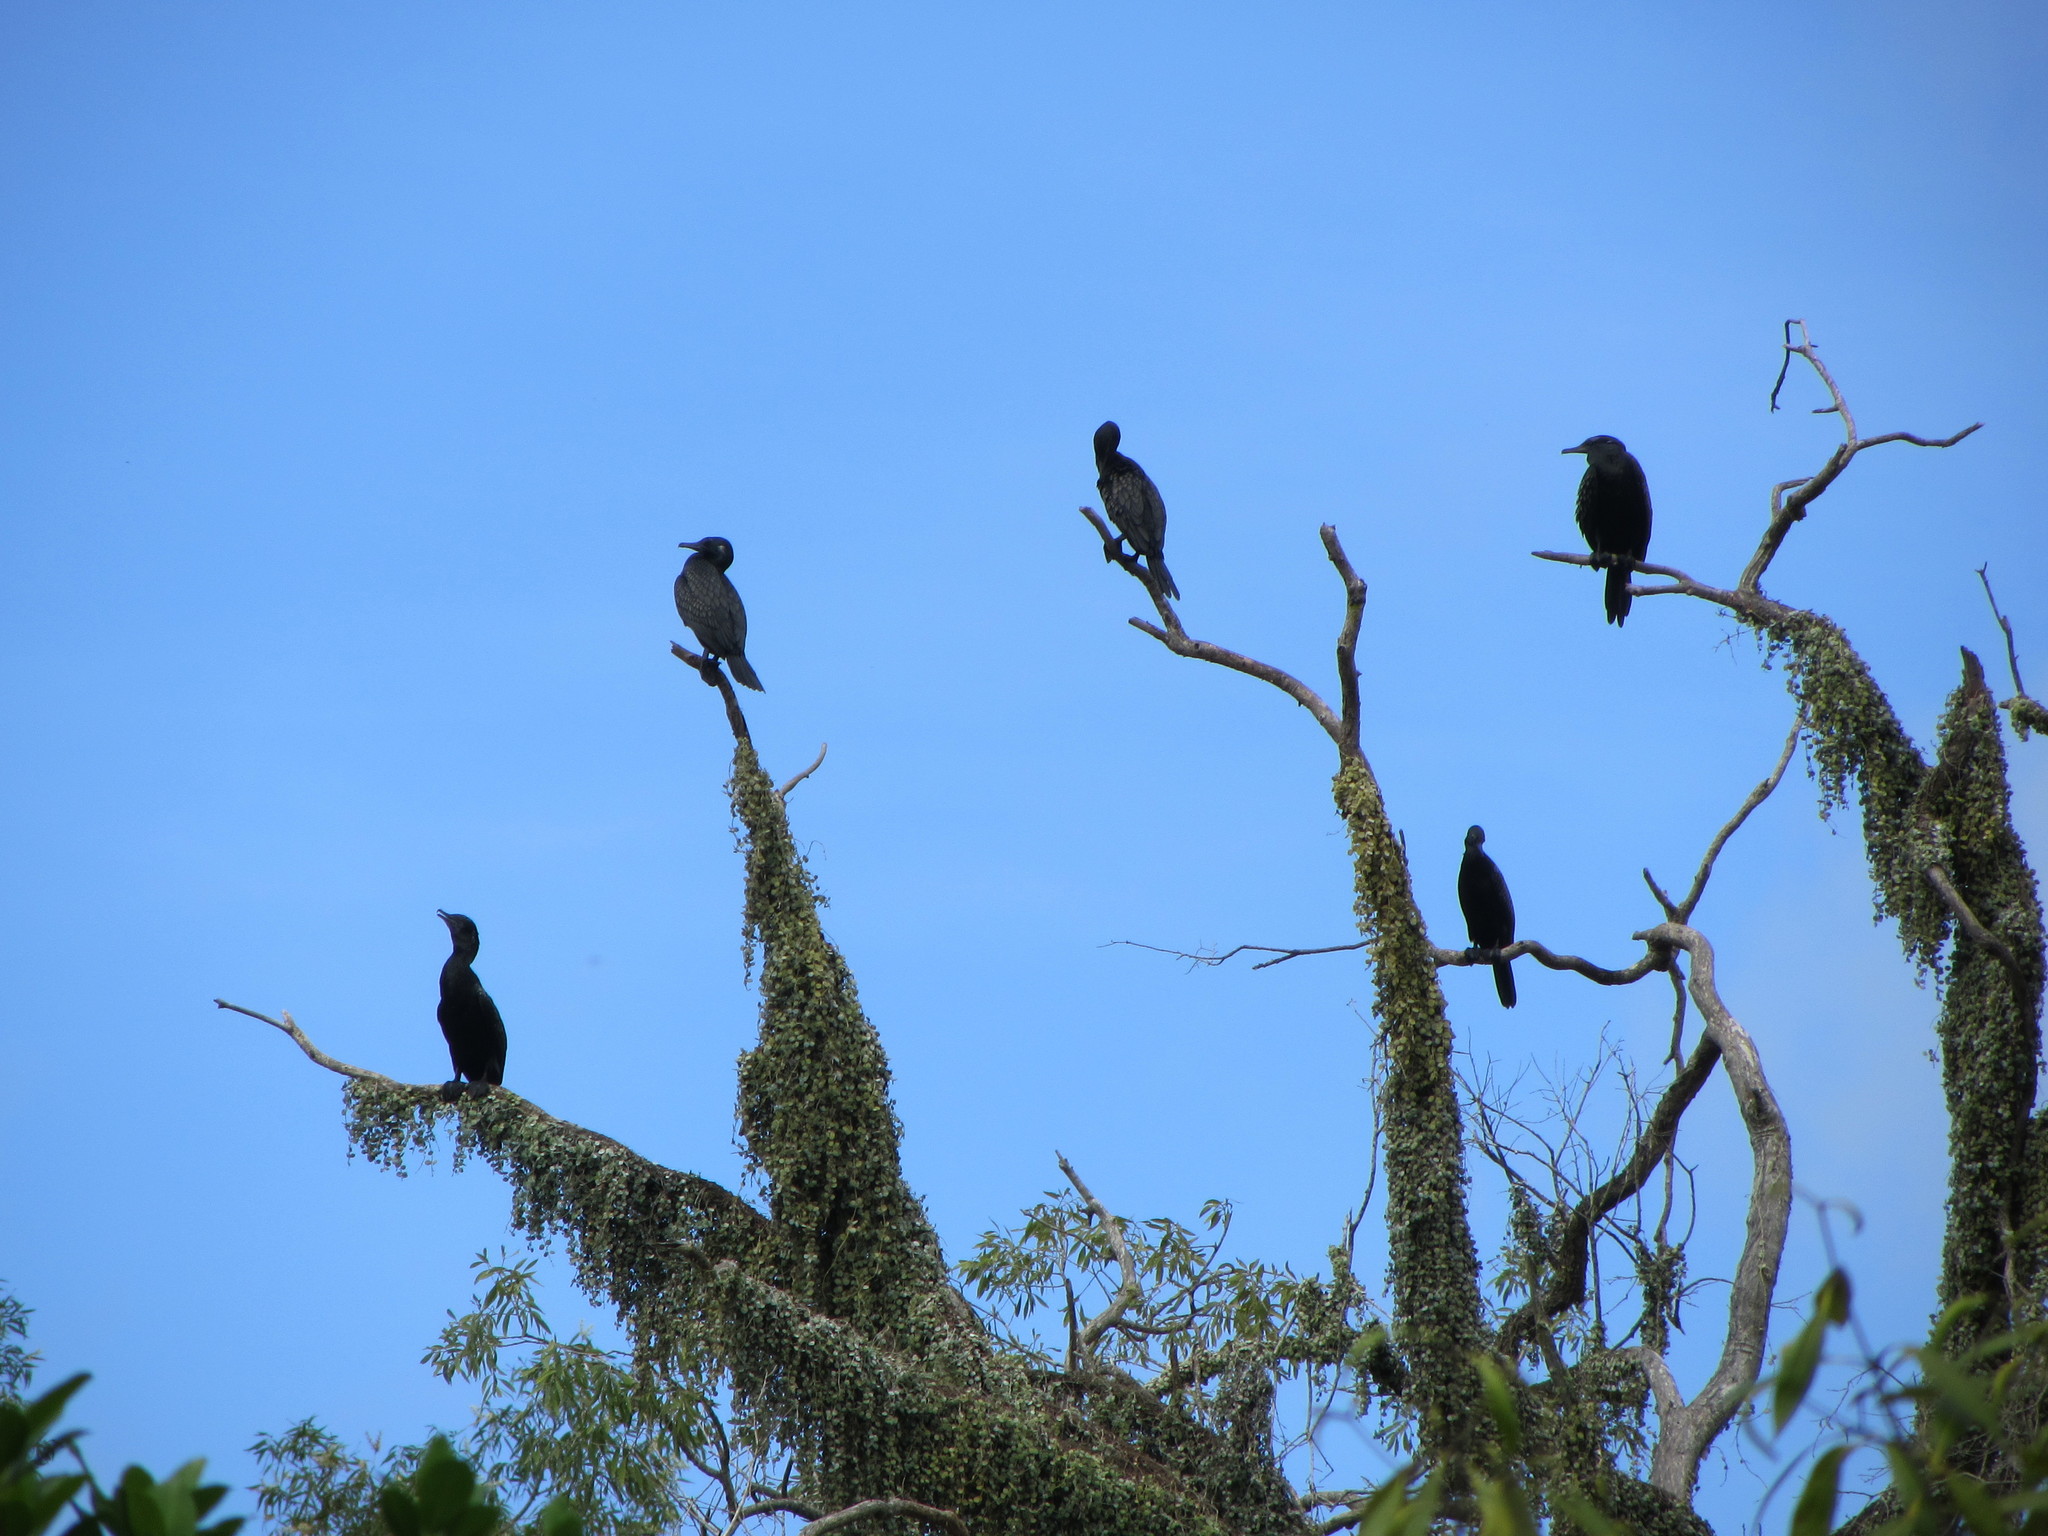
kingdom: Animalia
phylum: Chordata
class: Aves
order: Suliformes
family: Phalacrocoracidae
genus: Phalacrocorax
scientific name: Phalacrocorax sulcirostris
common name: Little black cormorant
